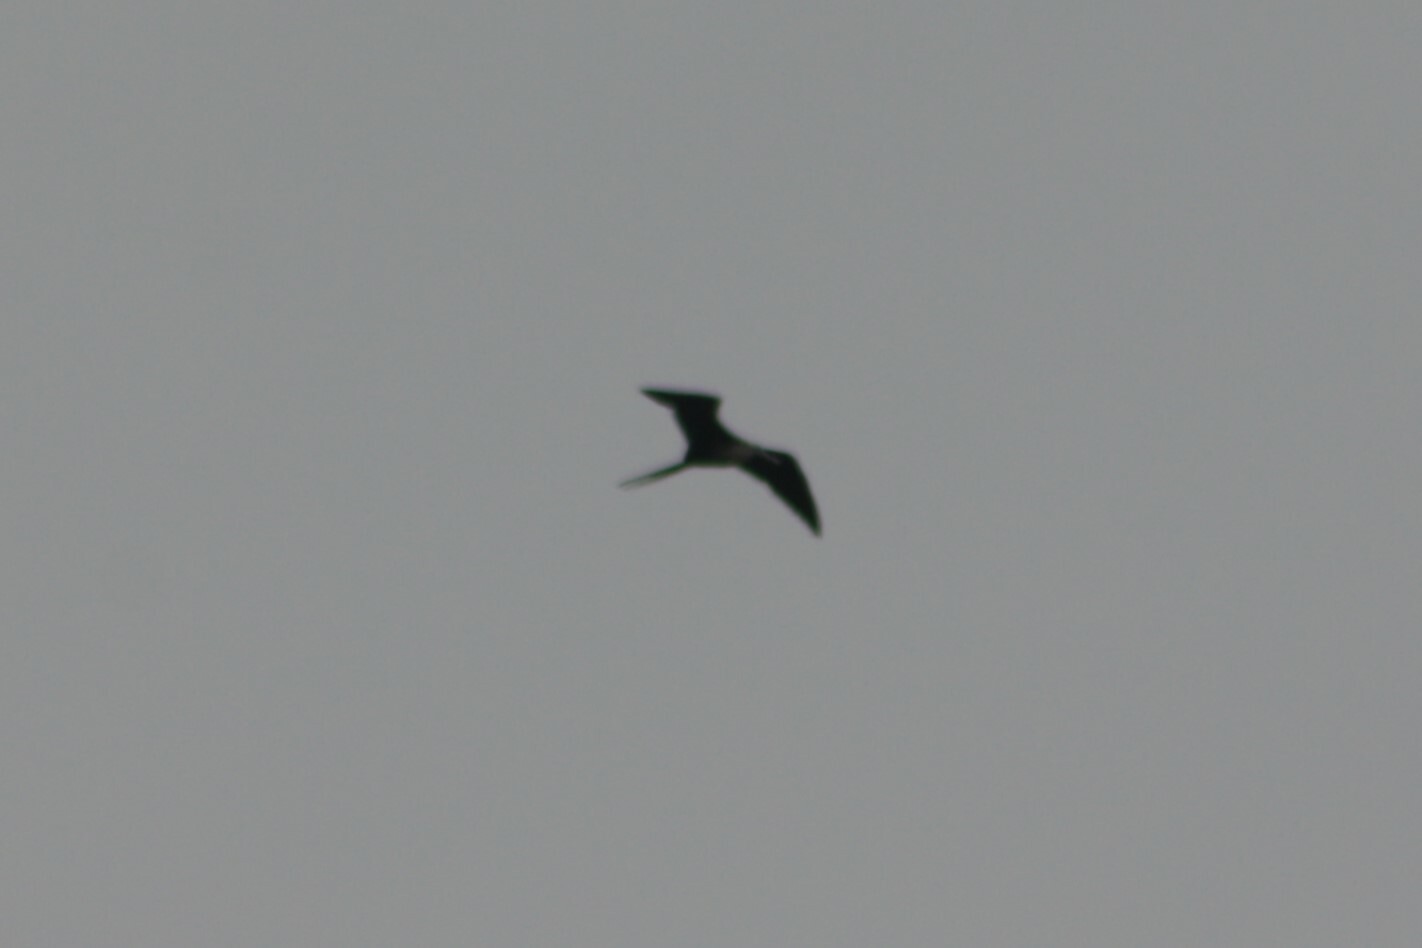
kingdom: Animalia
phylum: Chordata
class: Aves
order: Suliformes
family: Fregatidae
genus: Fregata
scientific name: Fregata magnificens
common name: Magnificent frigatebird
